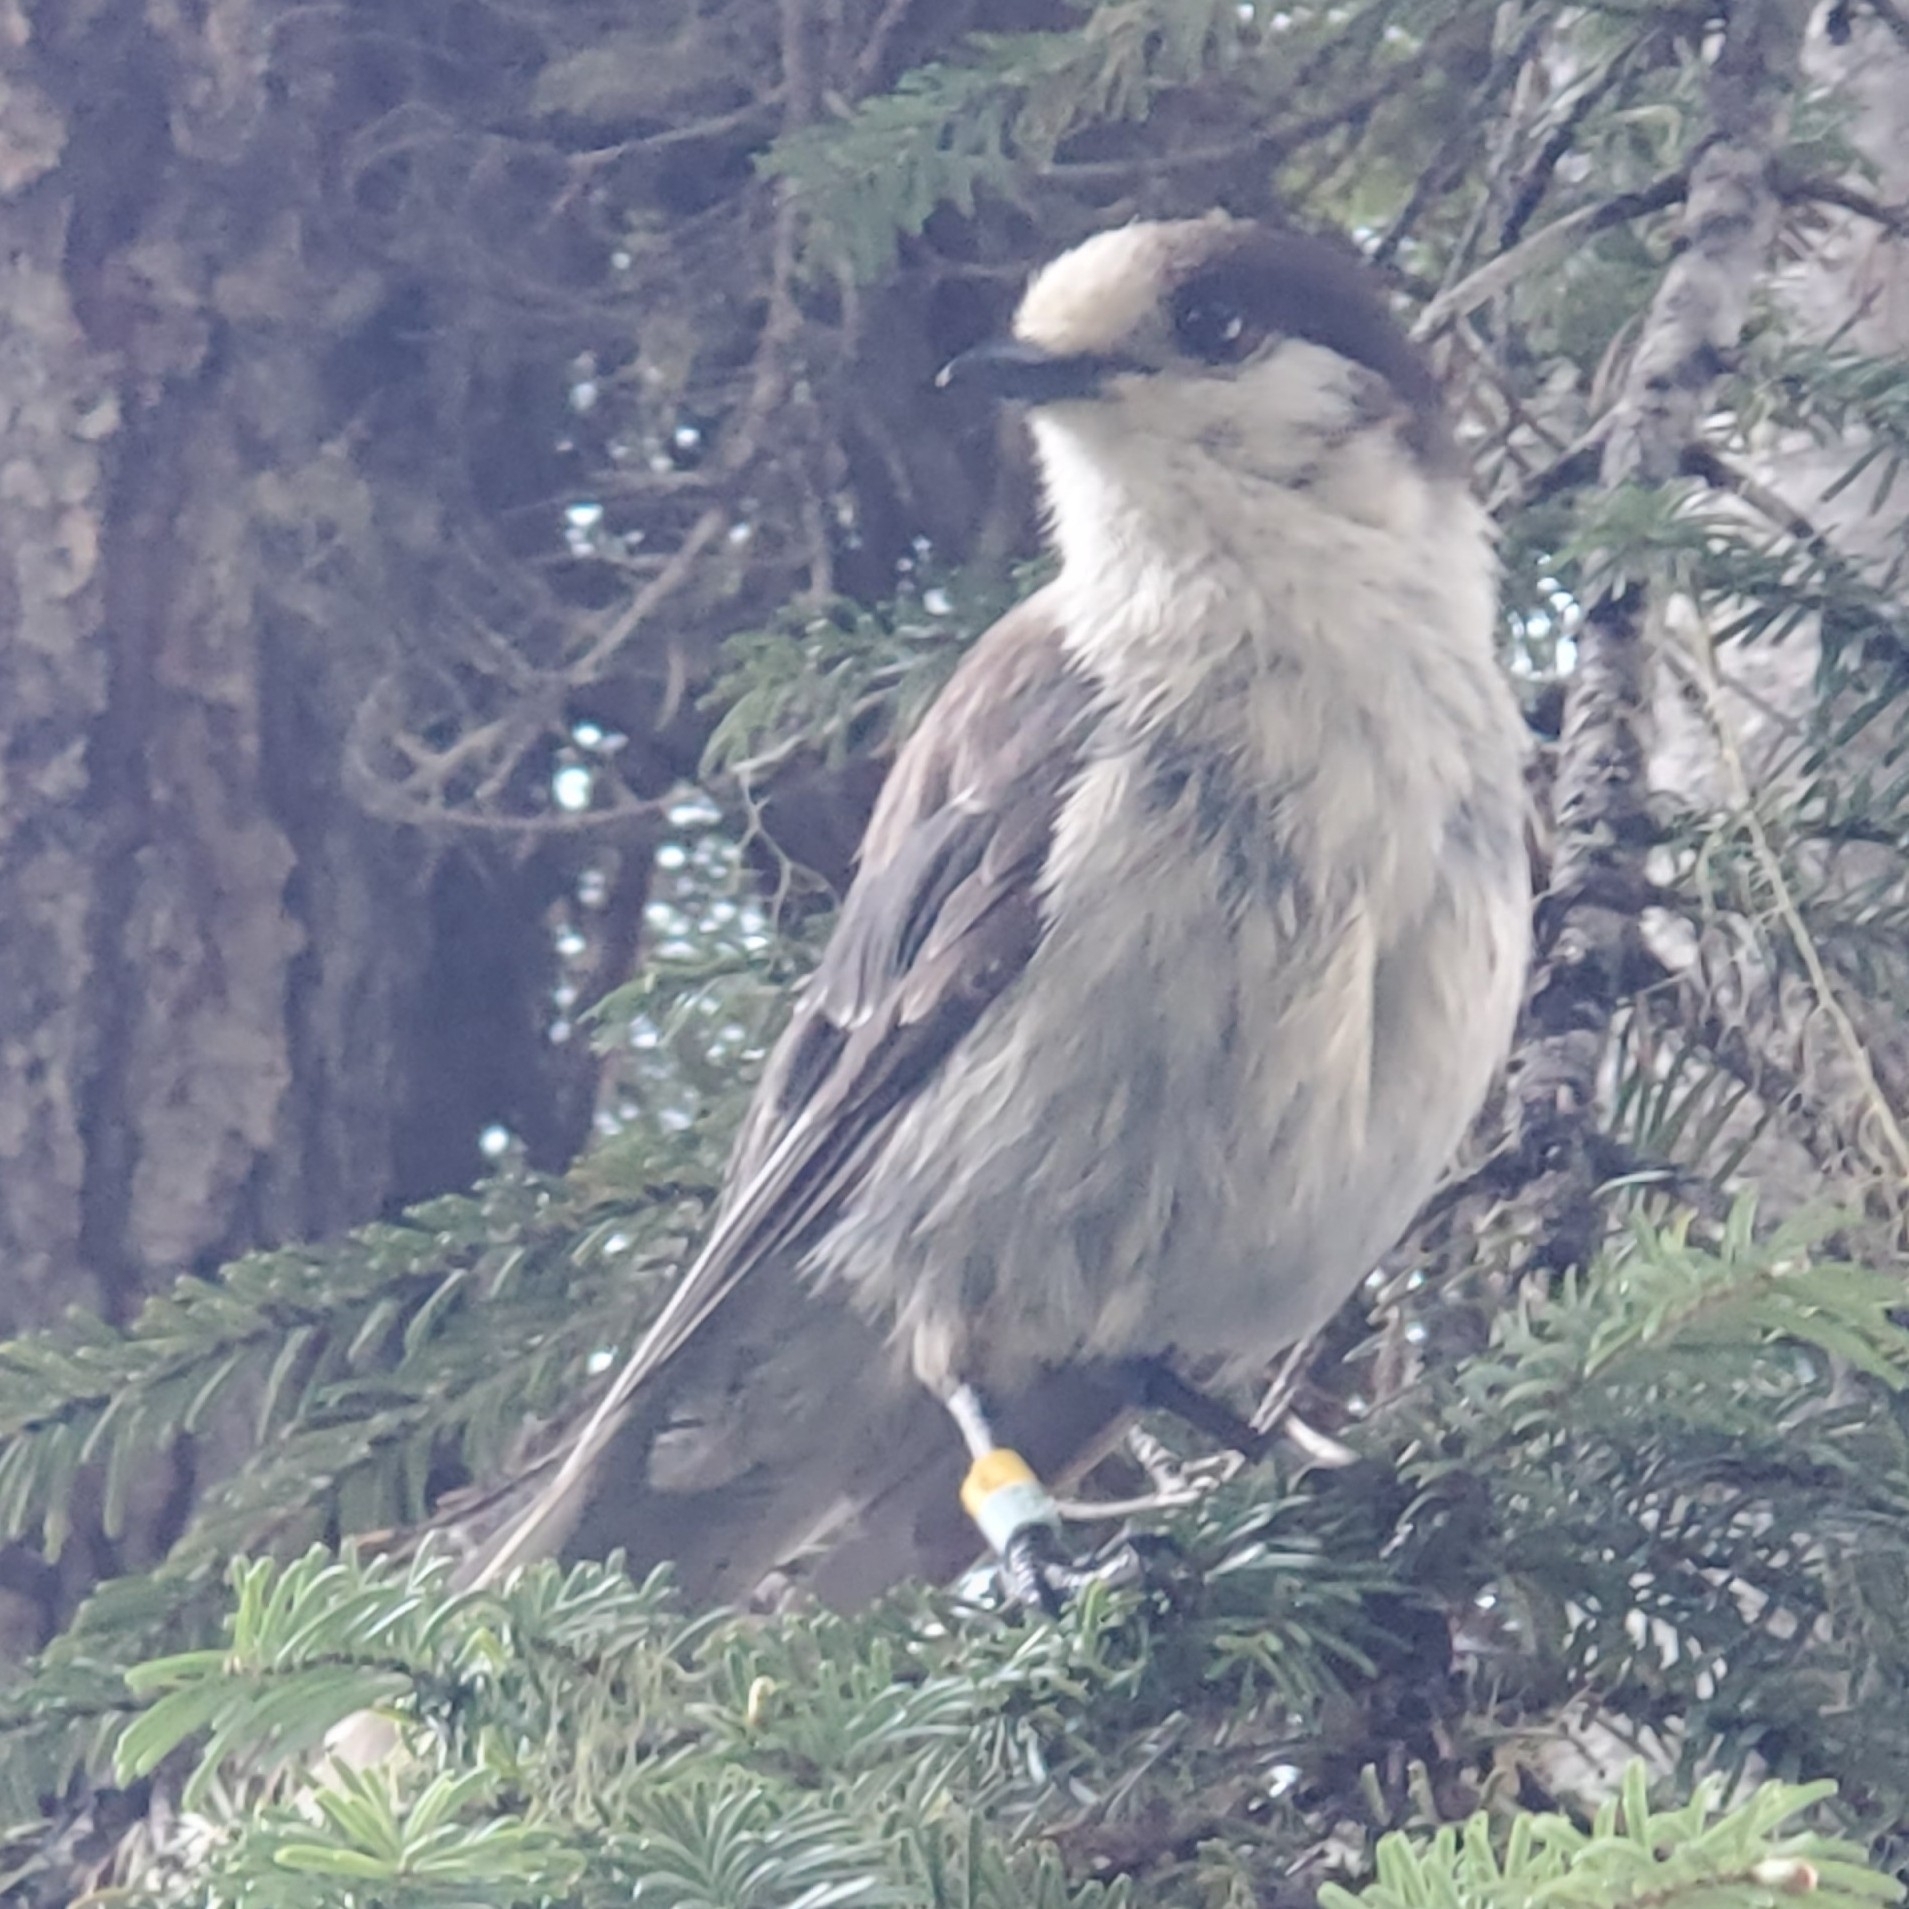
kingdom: Animalia
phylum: Chordata
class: Aves
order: Passeriformes
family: Corvidae
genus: Perisoreus
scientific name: Perisoreus canadensis
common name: Gray jay
